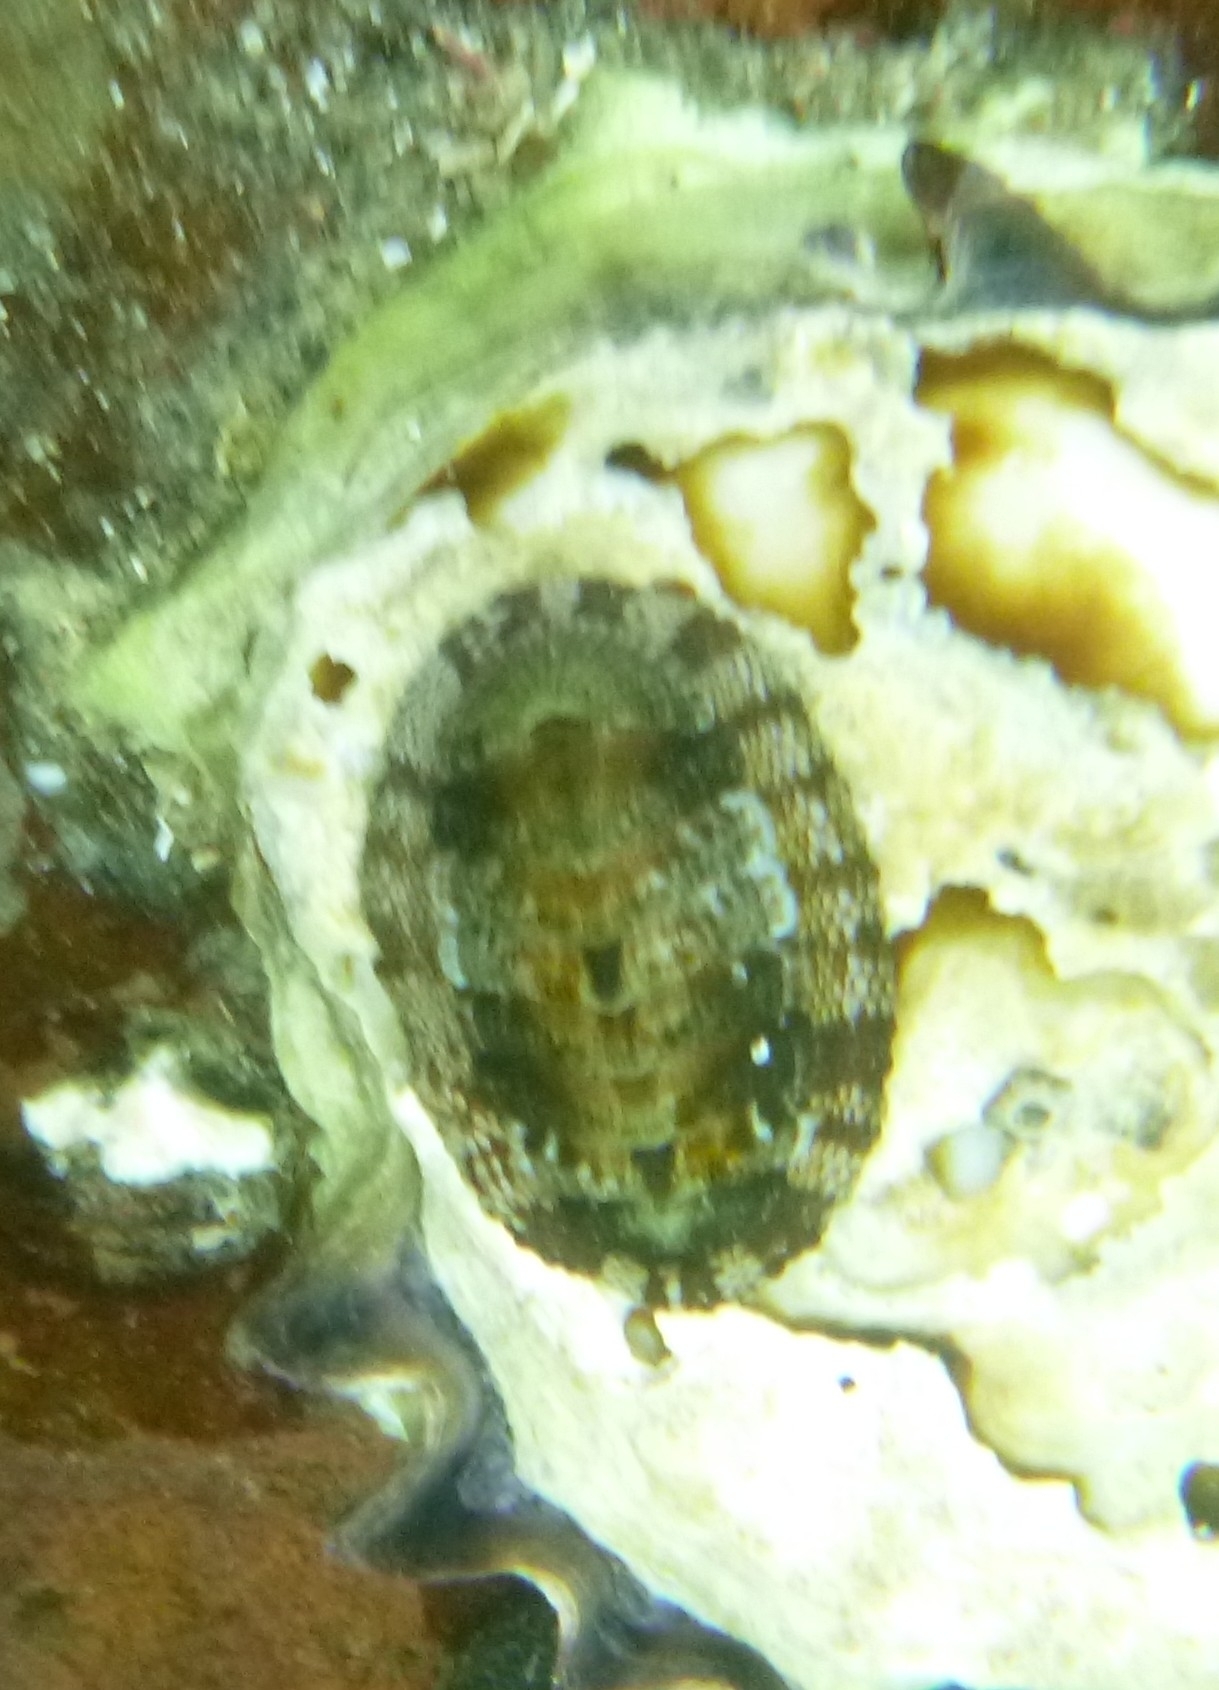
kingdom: Animalia
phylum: Mollusca
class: Polyplacophora
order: Chitonida
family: Chitonidae
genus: Sypharochiton
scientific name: Sypharochiton pelliserpentis
